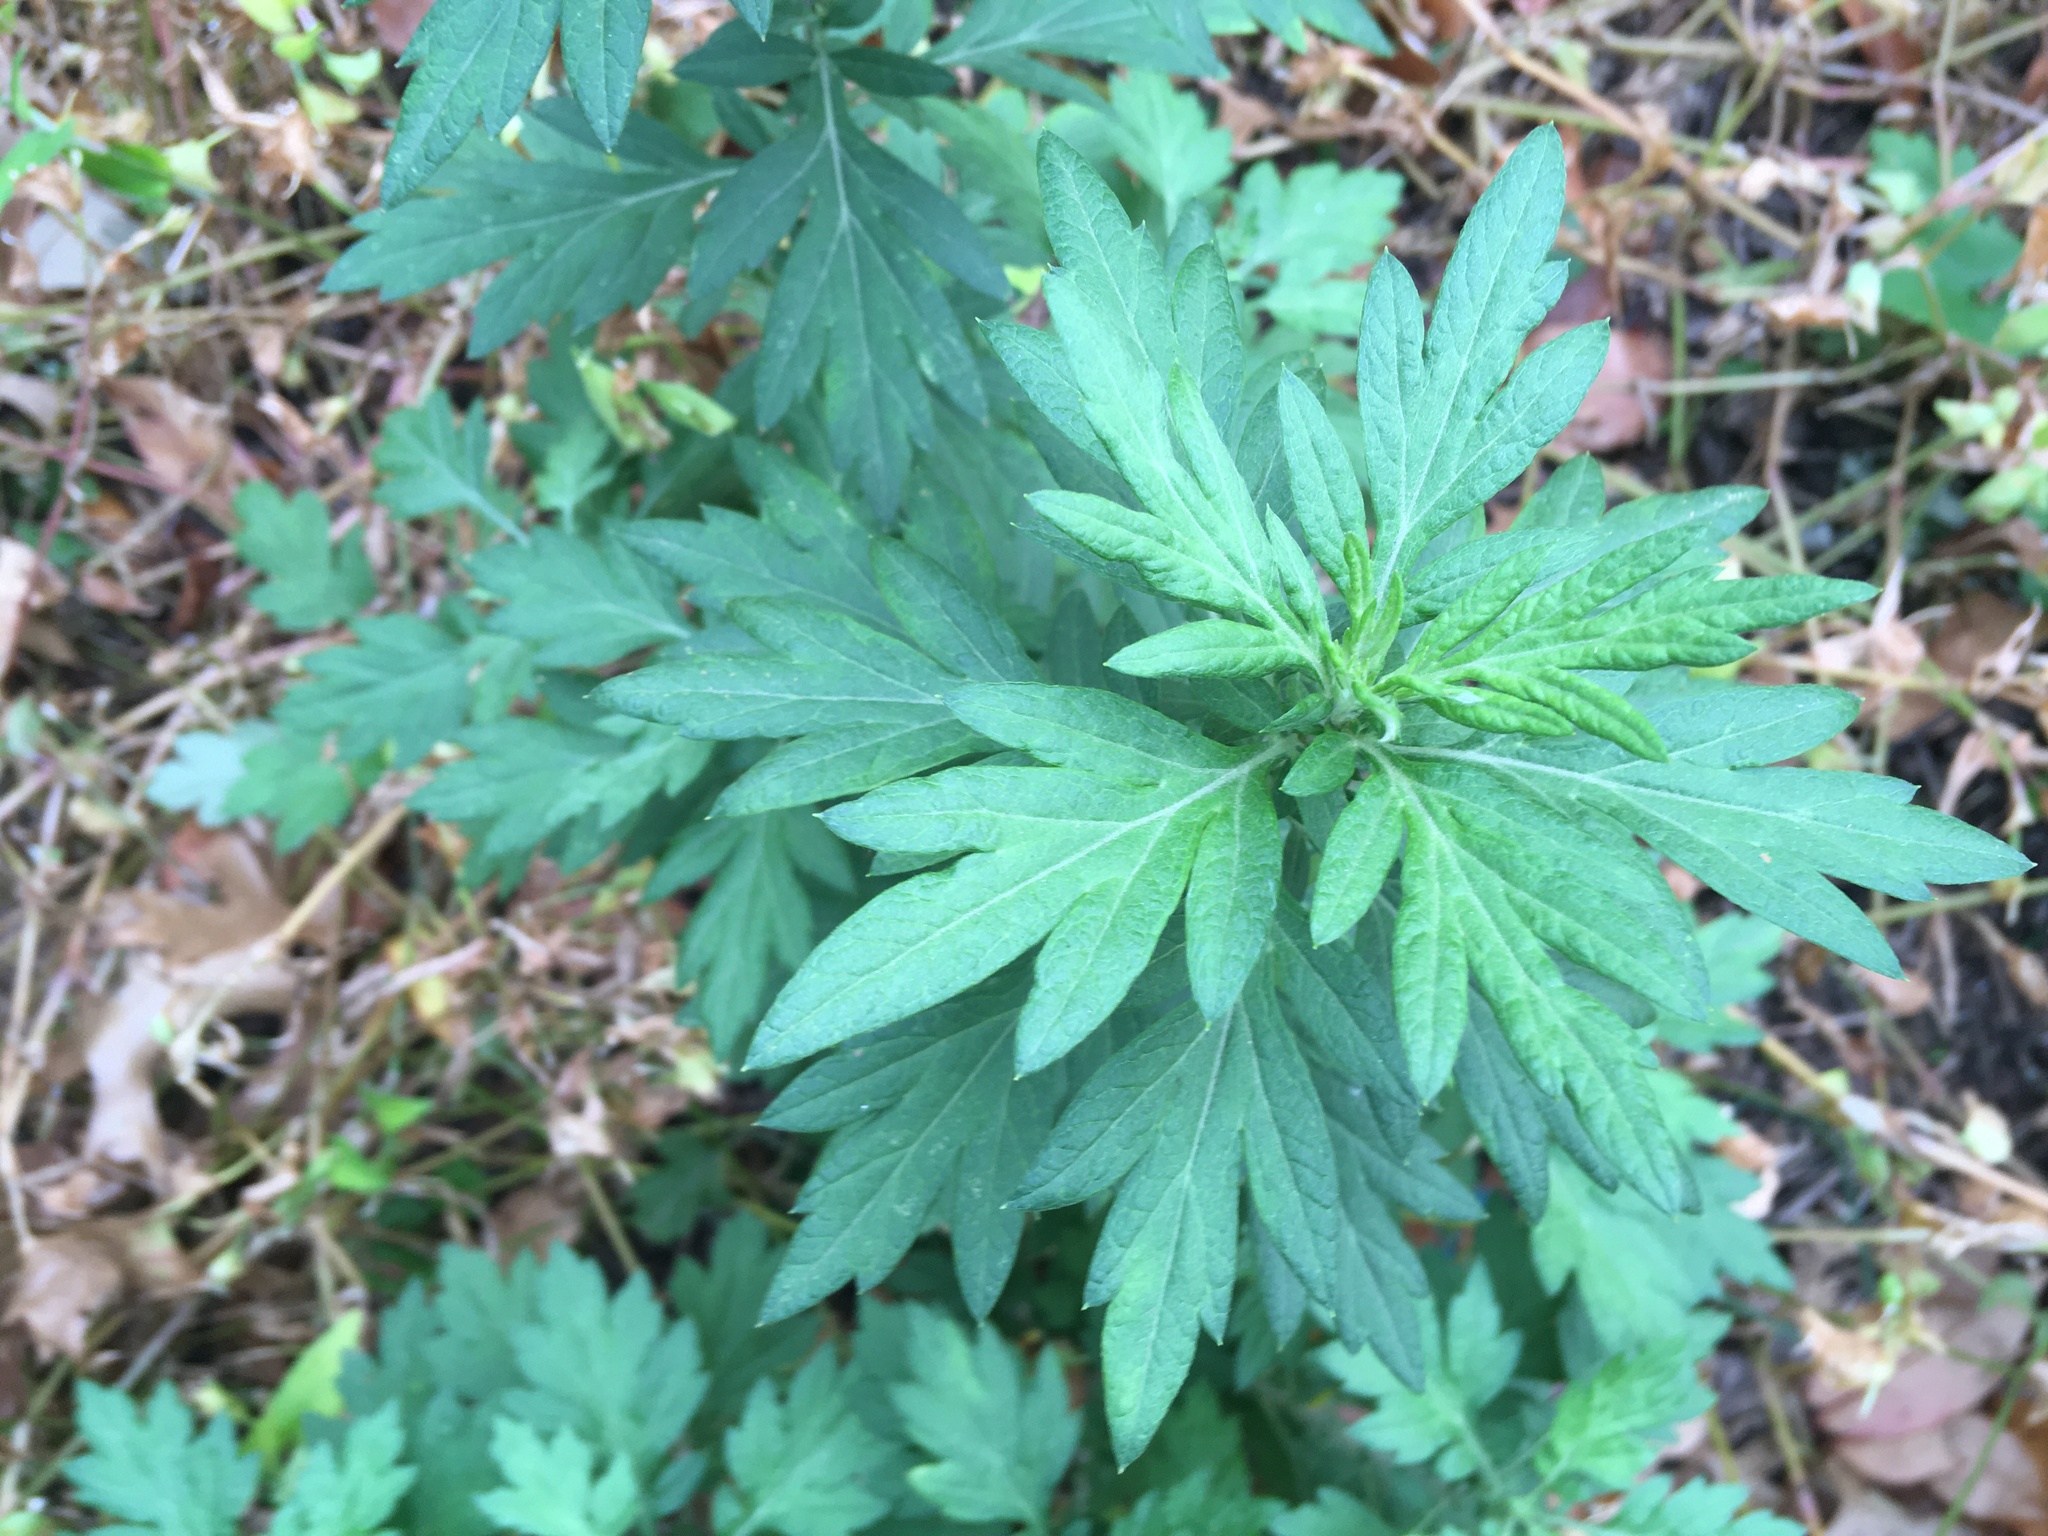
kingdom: Plantae
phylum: Tracheophyta
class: Magnoliopsida
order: Asterales
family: Asteraceae
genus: Artemisia
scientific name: Artemisia vulgaris
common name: Mugwort
